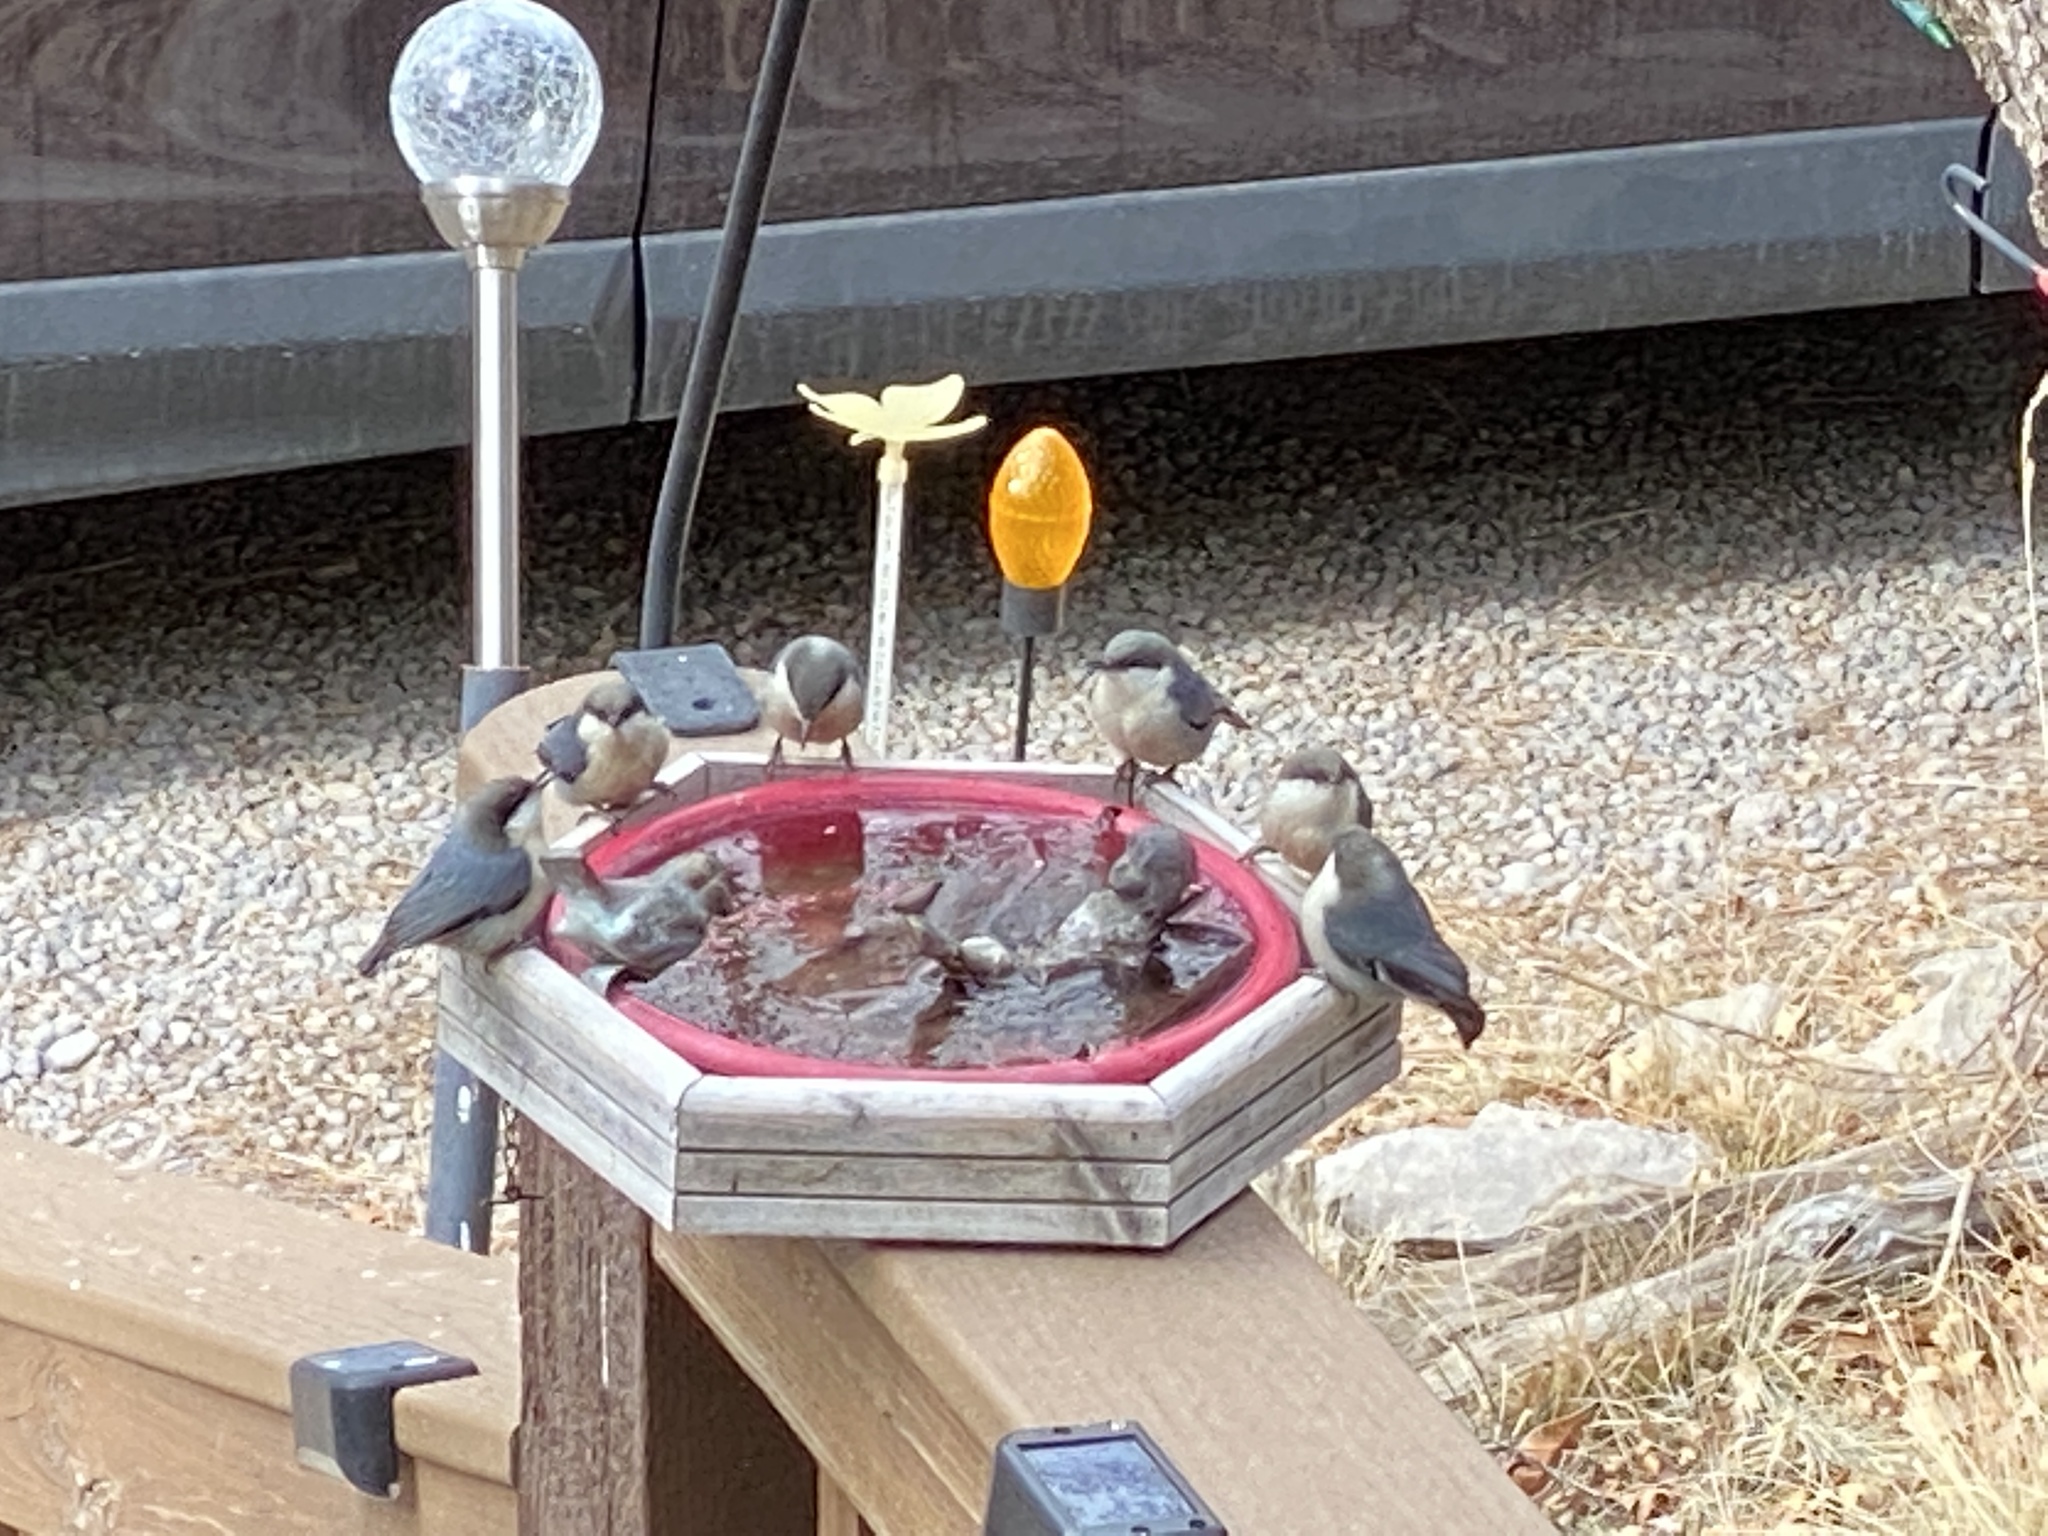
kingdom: Animalia
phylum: Chordata
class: Aves
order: Passeriformes
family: Sittidae
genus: Sitta
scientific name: Sitta pygmaea
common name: Pygmy nuthatch
